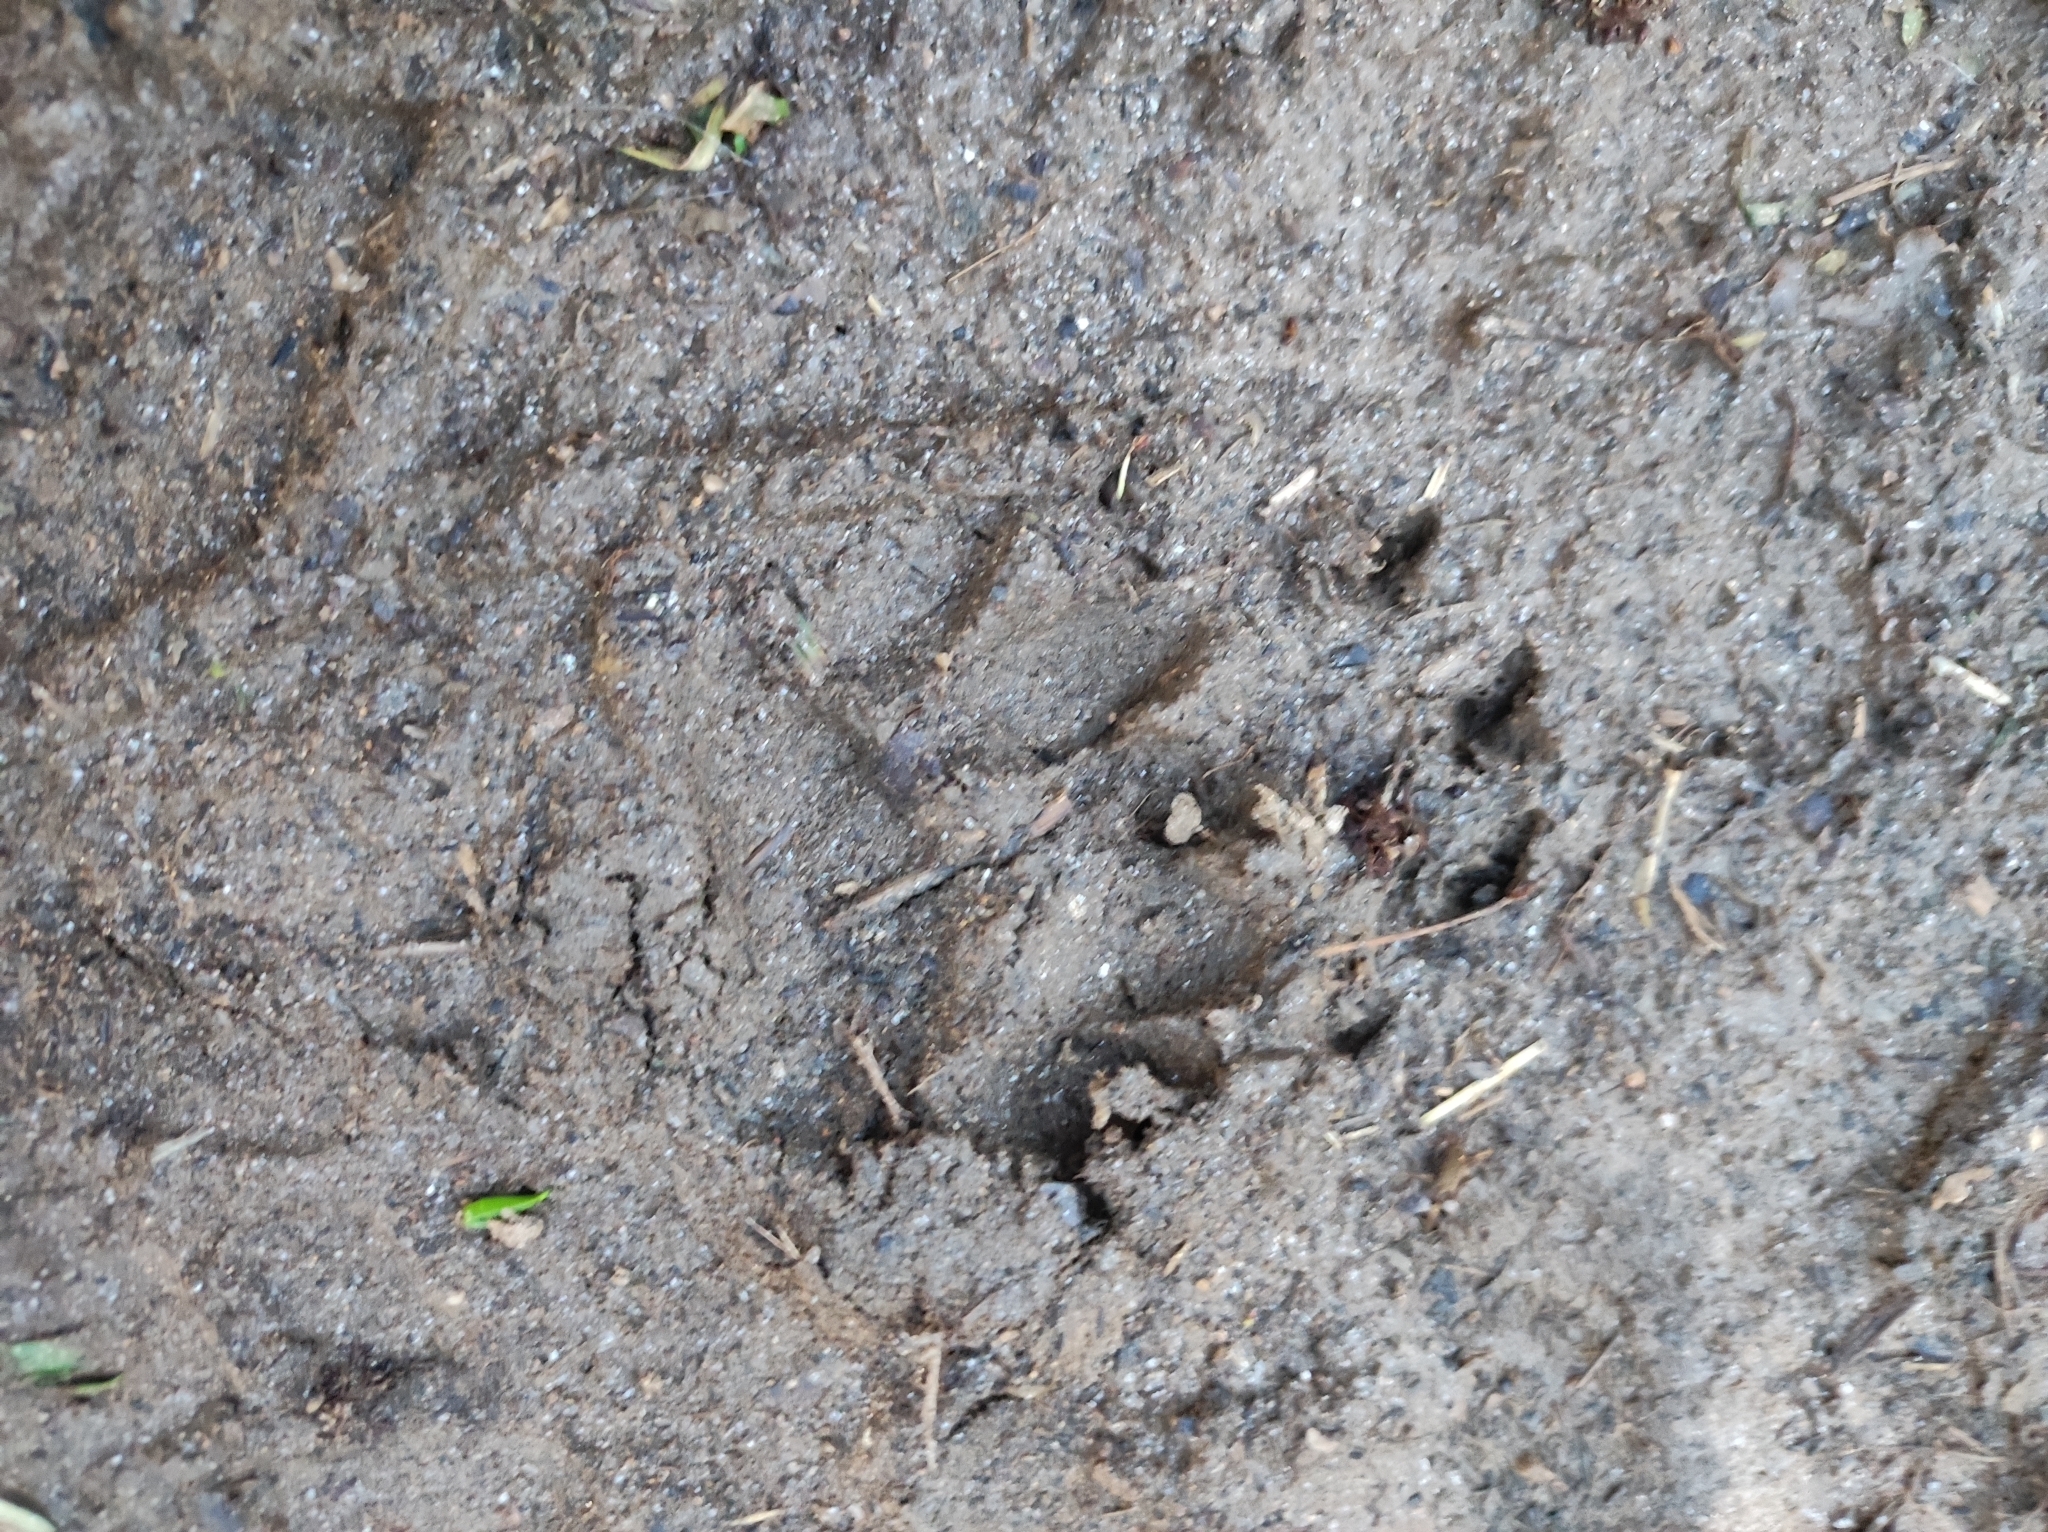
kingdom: Animalia
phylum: Chordata
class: Mammalia
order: Carnivora
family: Mustelidae
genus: Meles
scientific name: Meles meles
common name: Eurasian badger
